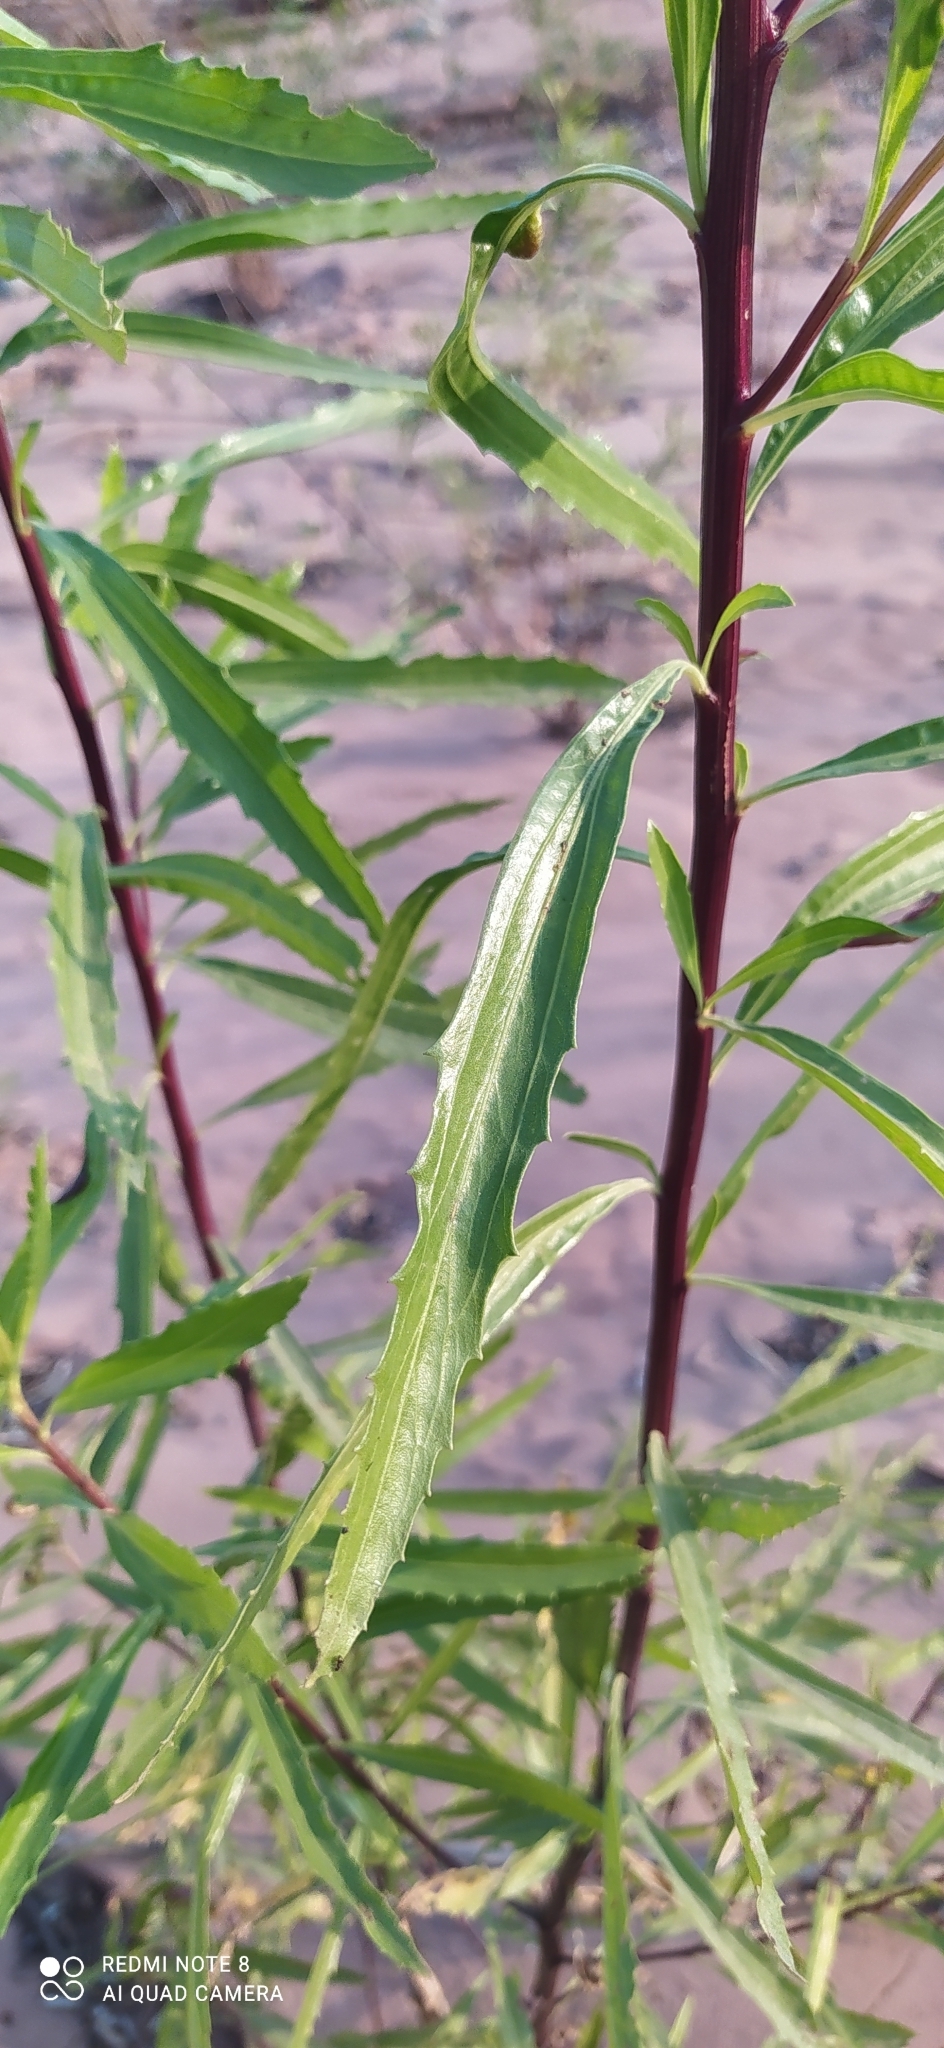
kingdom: Plantae
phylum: Tracheophyta
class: Magnoliopsida
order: Asterales
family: Asteraceae
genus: Tessaria
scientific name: Tessaria integrifolia
